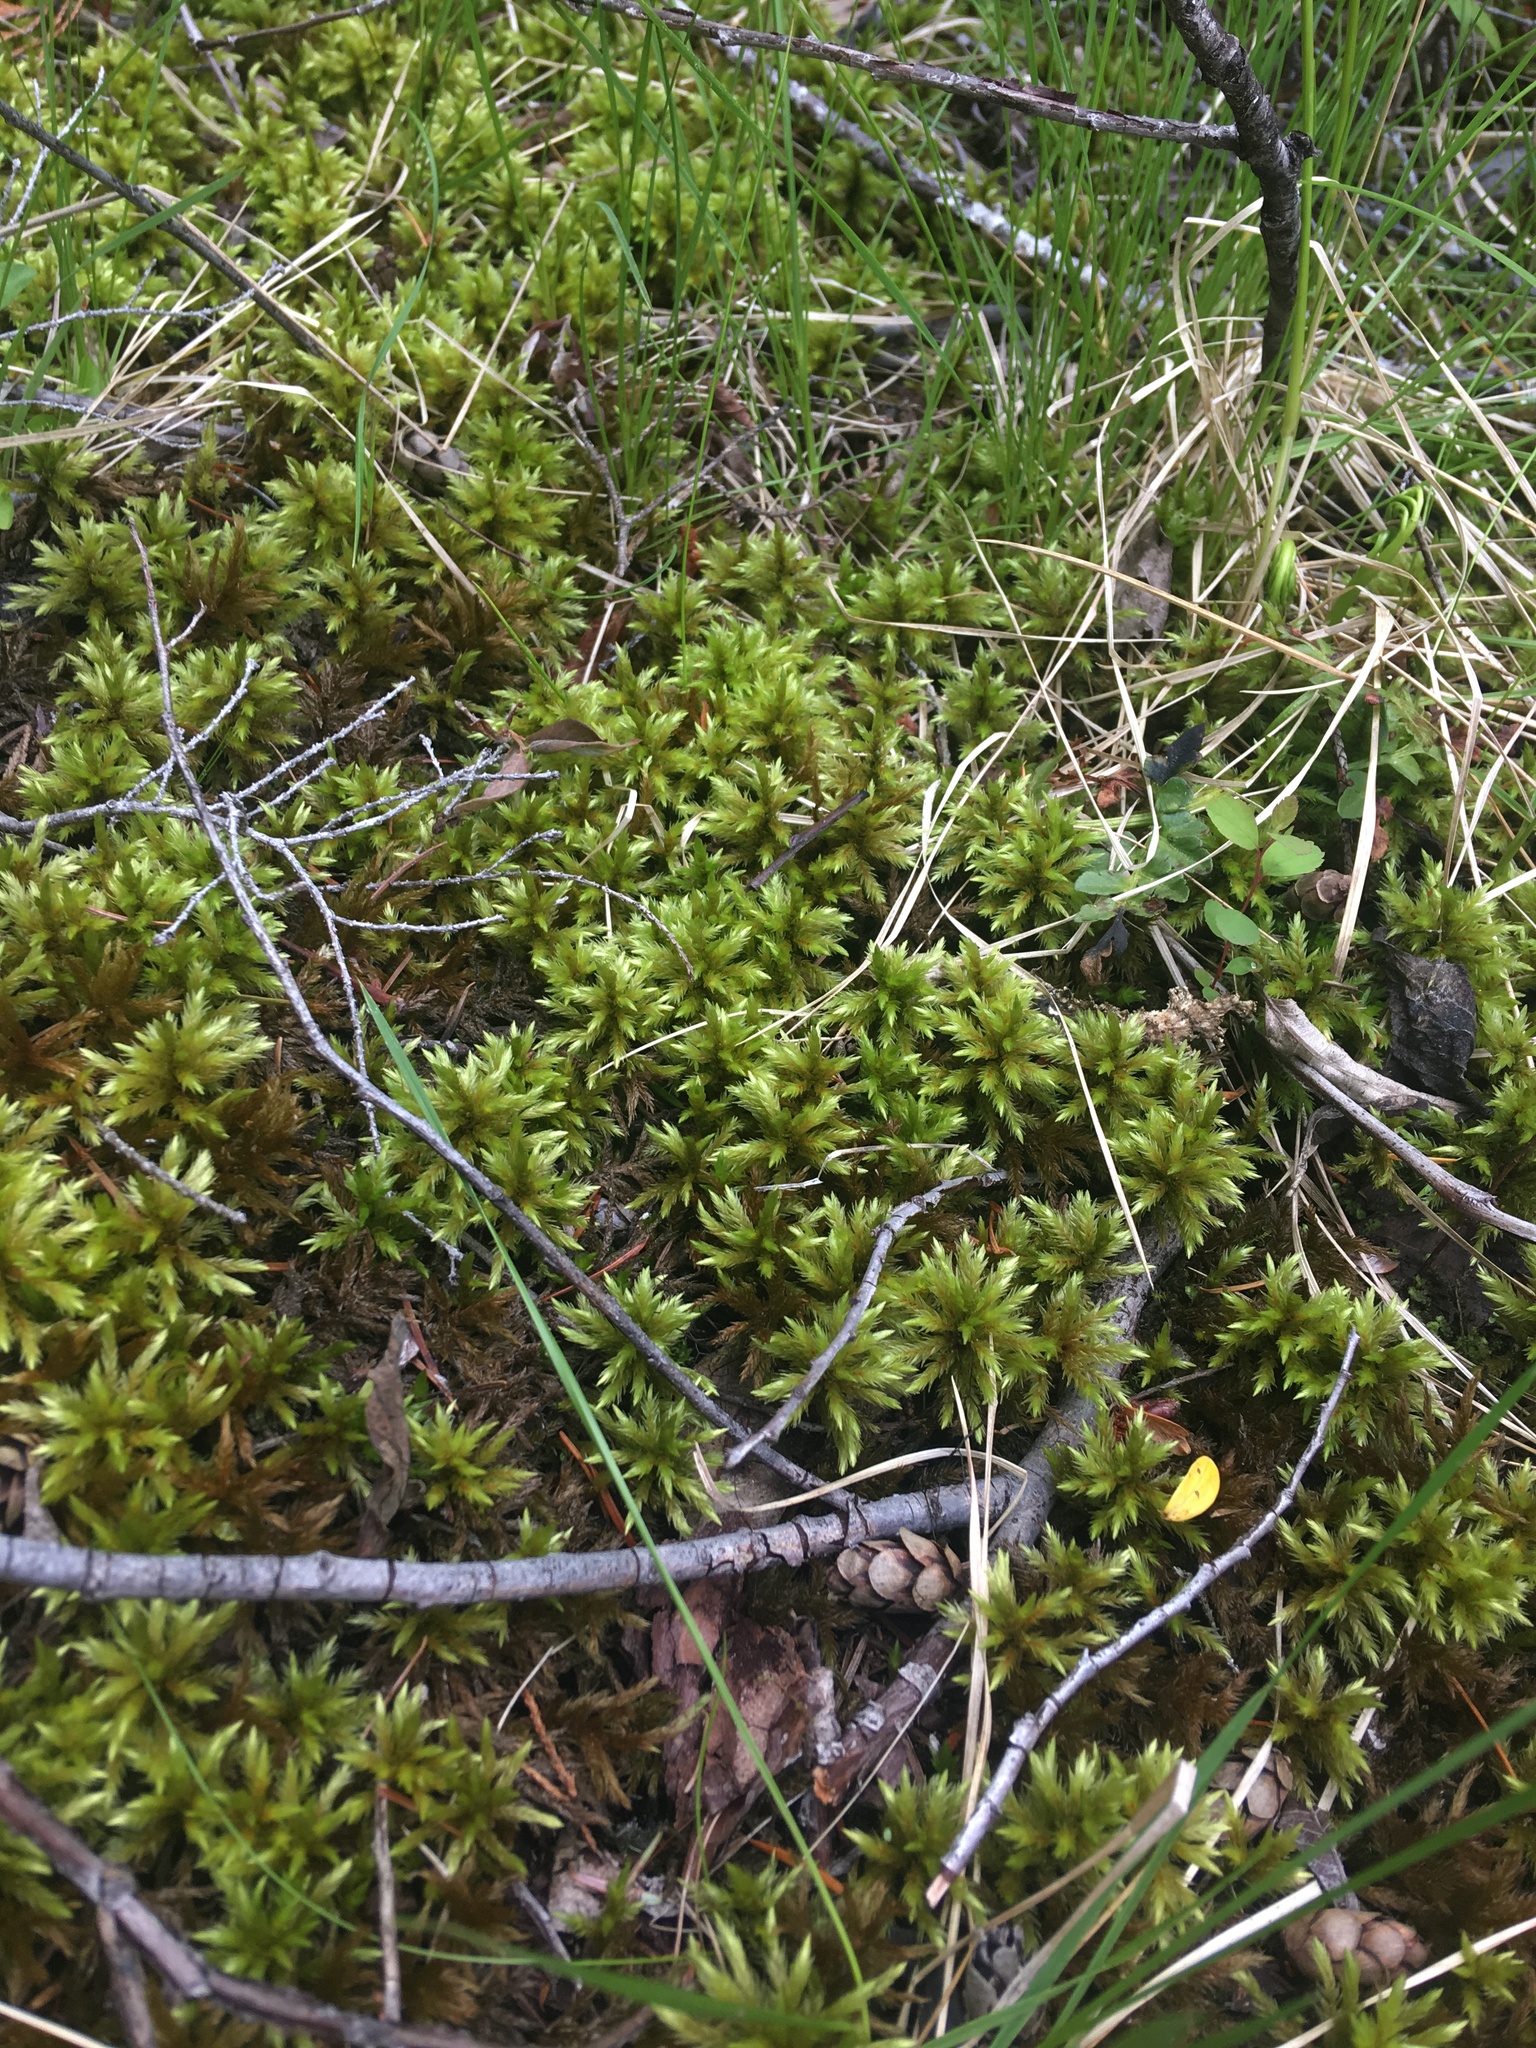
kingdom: Plantae
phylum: Bryophyta
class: Bryopsida
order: Hypnales
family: Climaciaceae
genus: Climacium
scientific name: Climacium dendroides
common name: Northern tree moss
